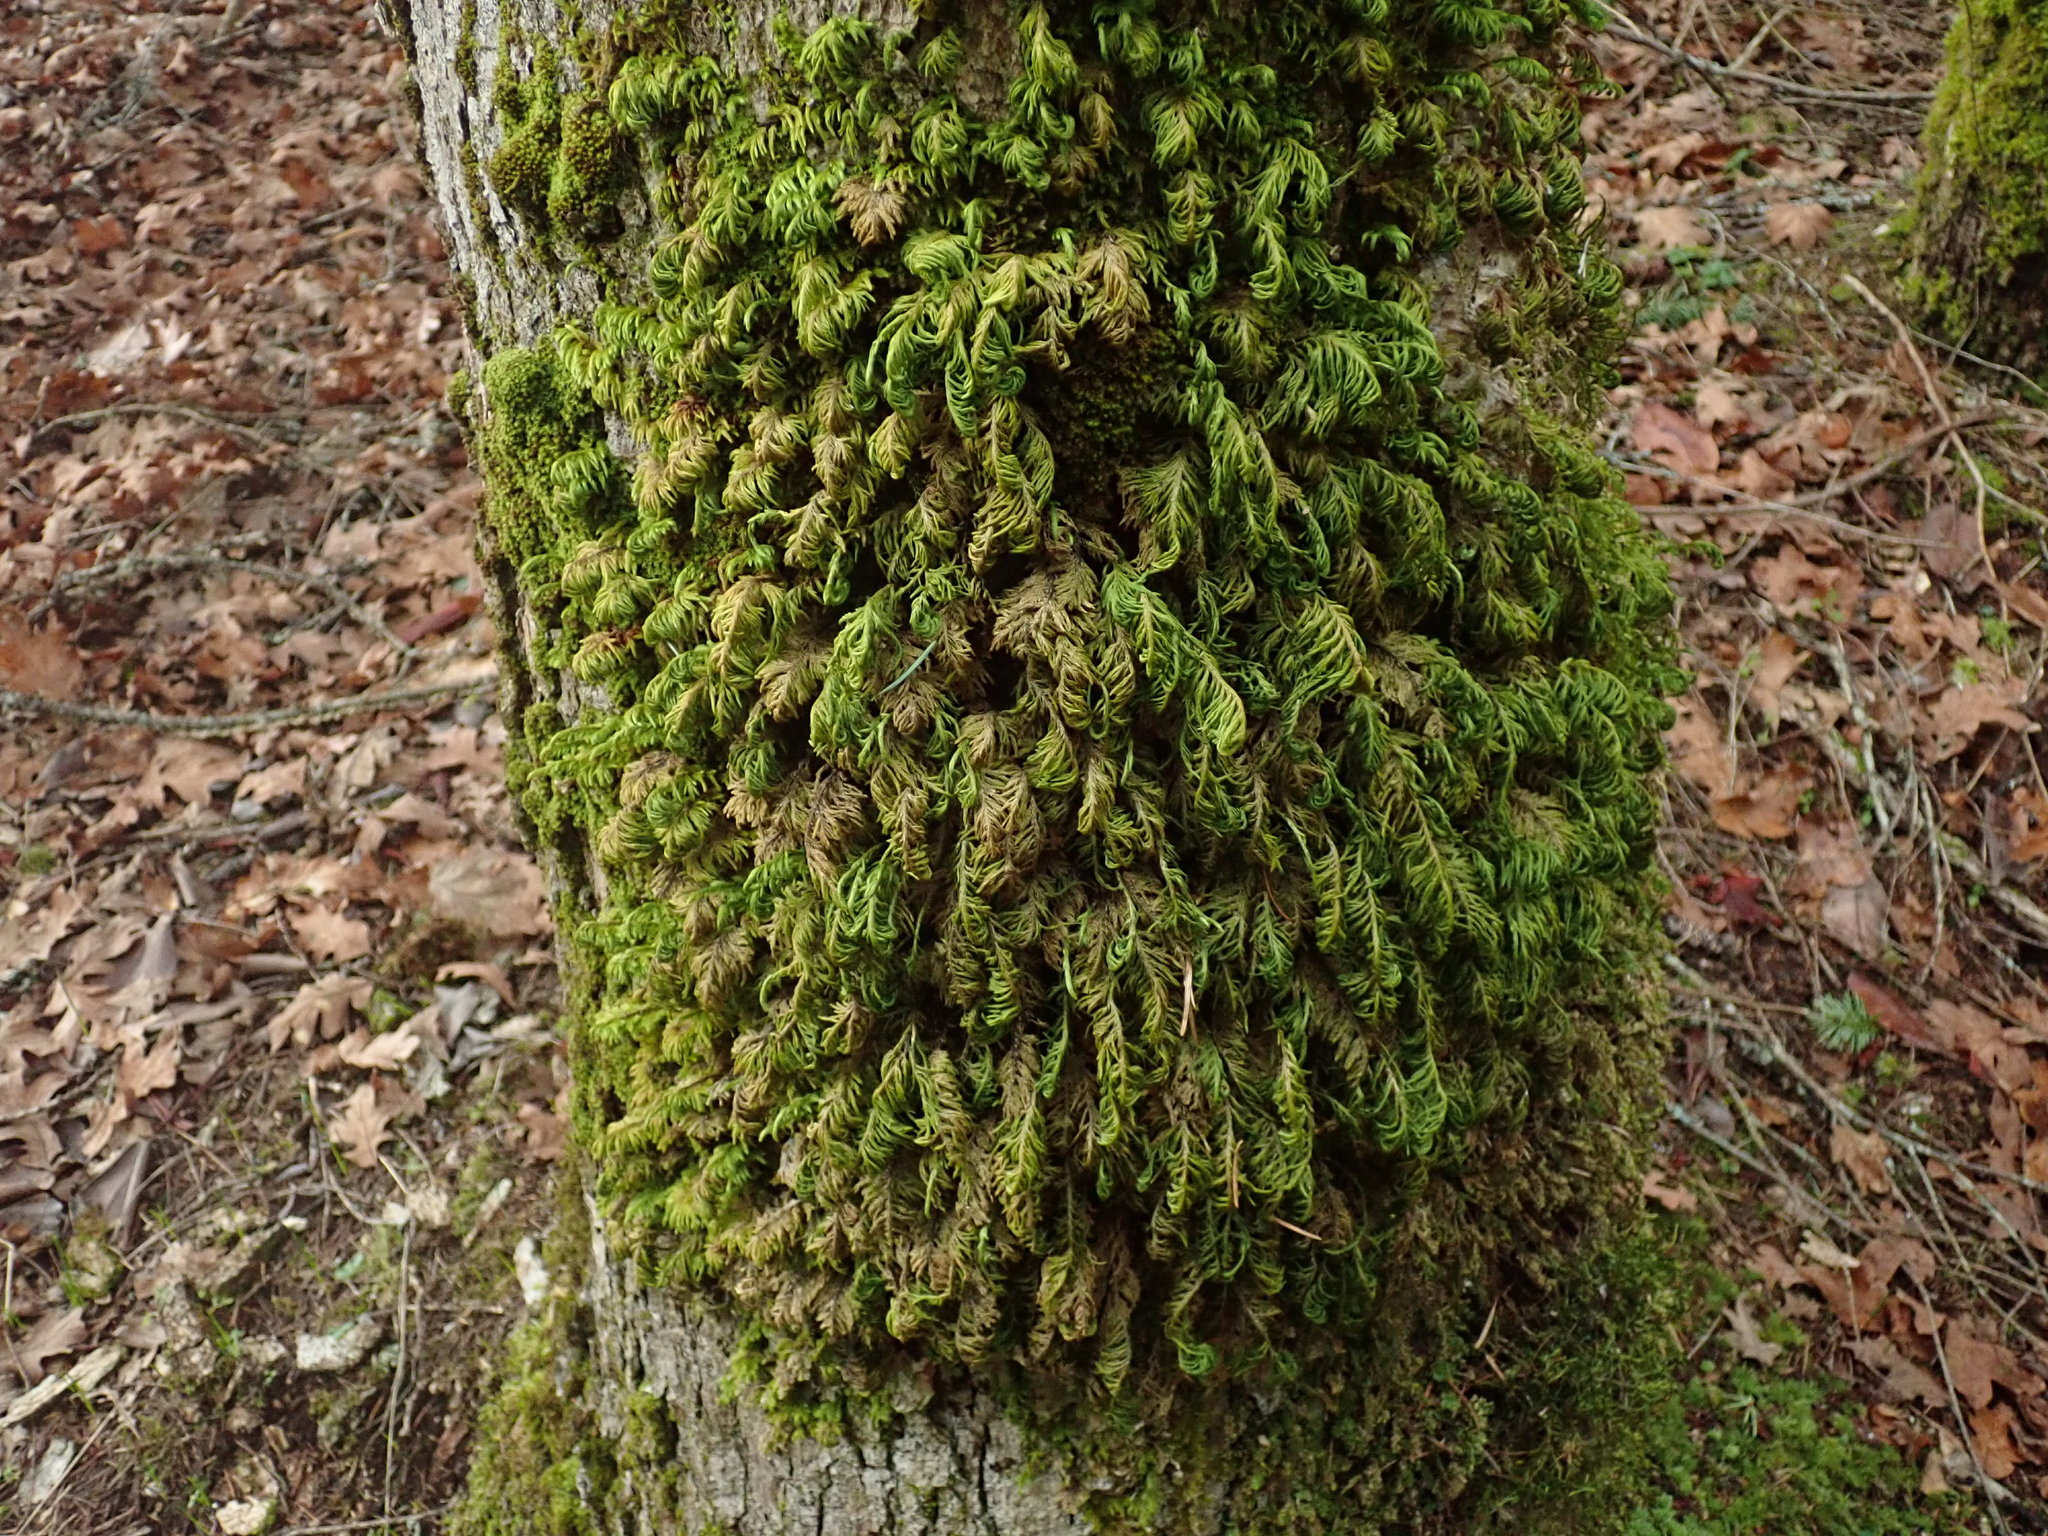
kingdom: Plantae
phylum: Bryophyta
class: Bryopsida
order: Hypnales
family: Cryphaeaceae
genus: Dendroalsia
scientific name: Dendroalsia abietina
